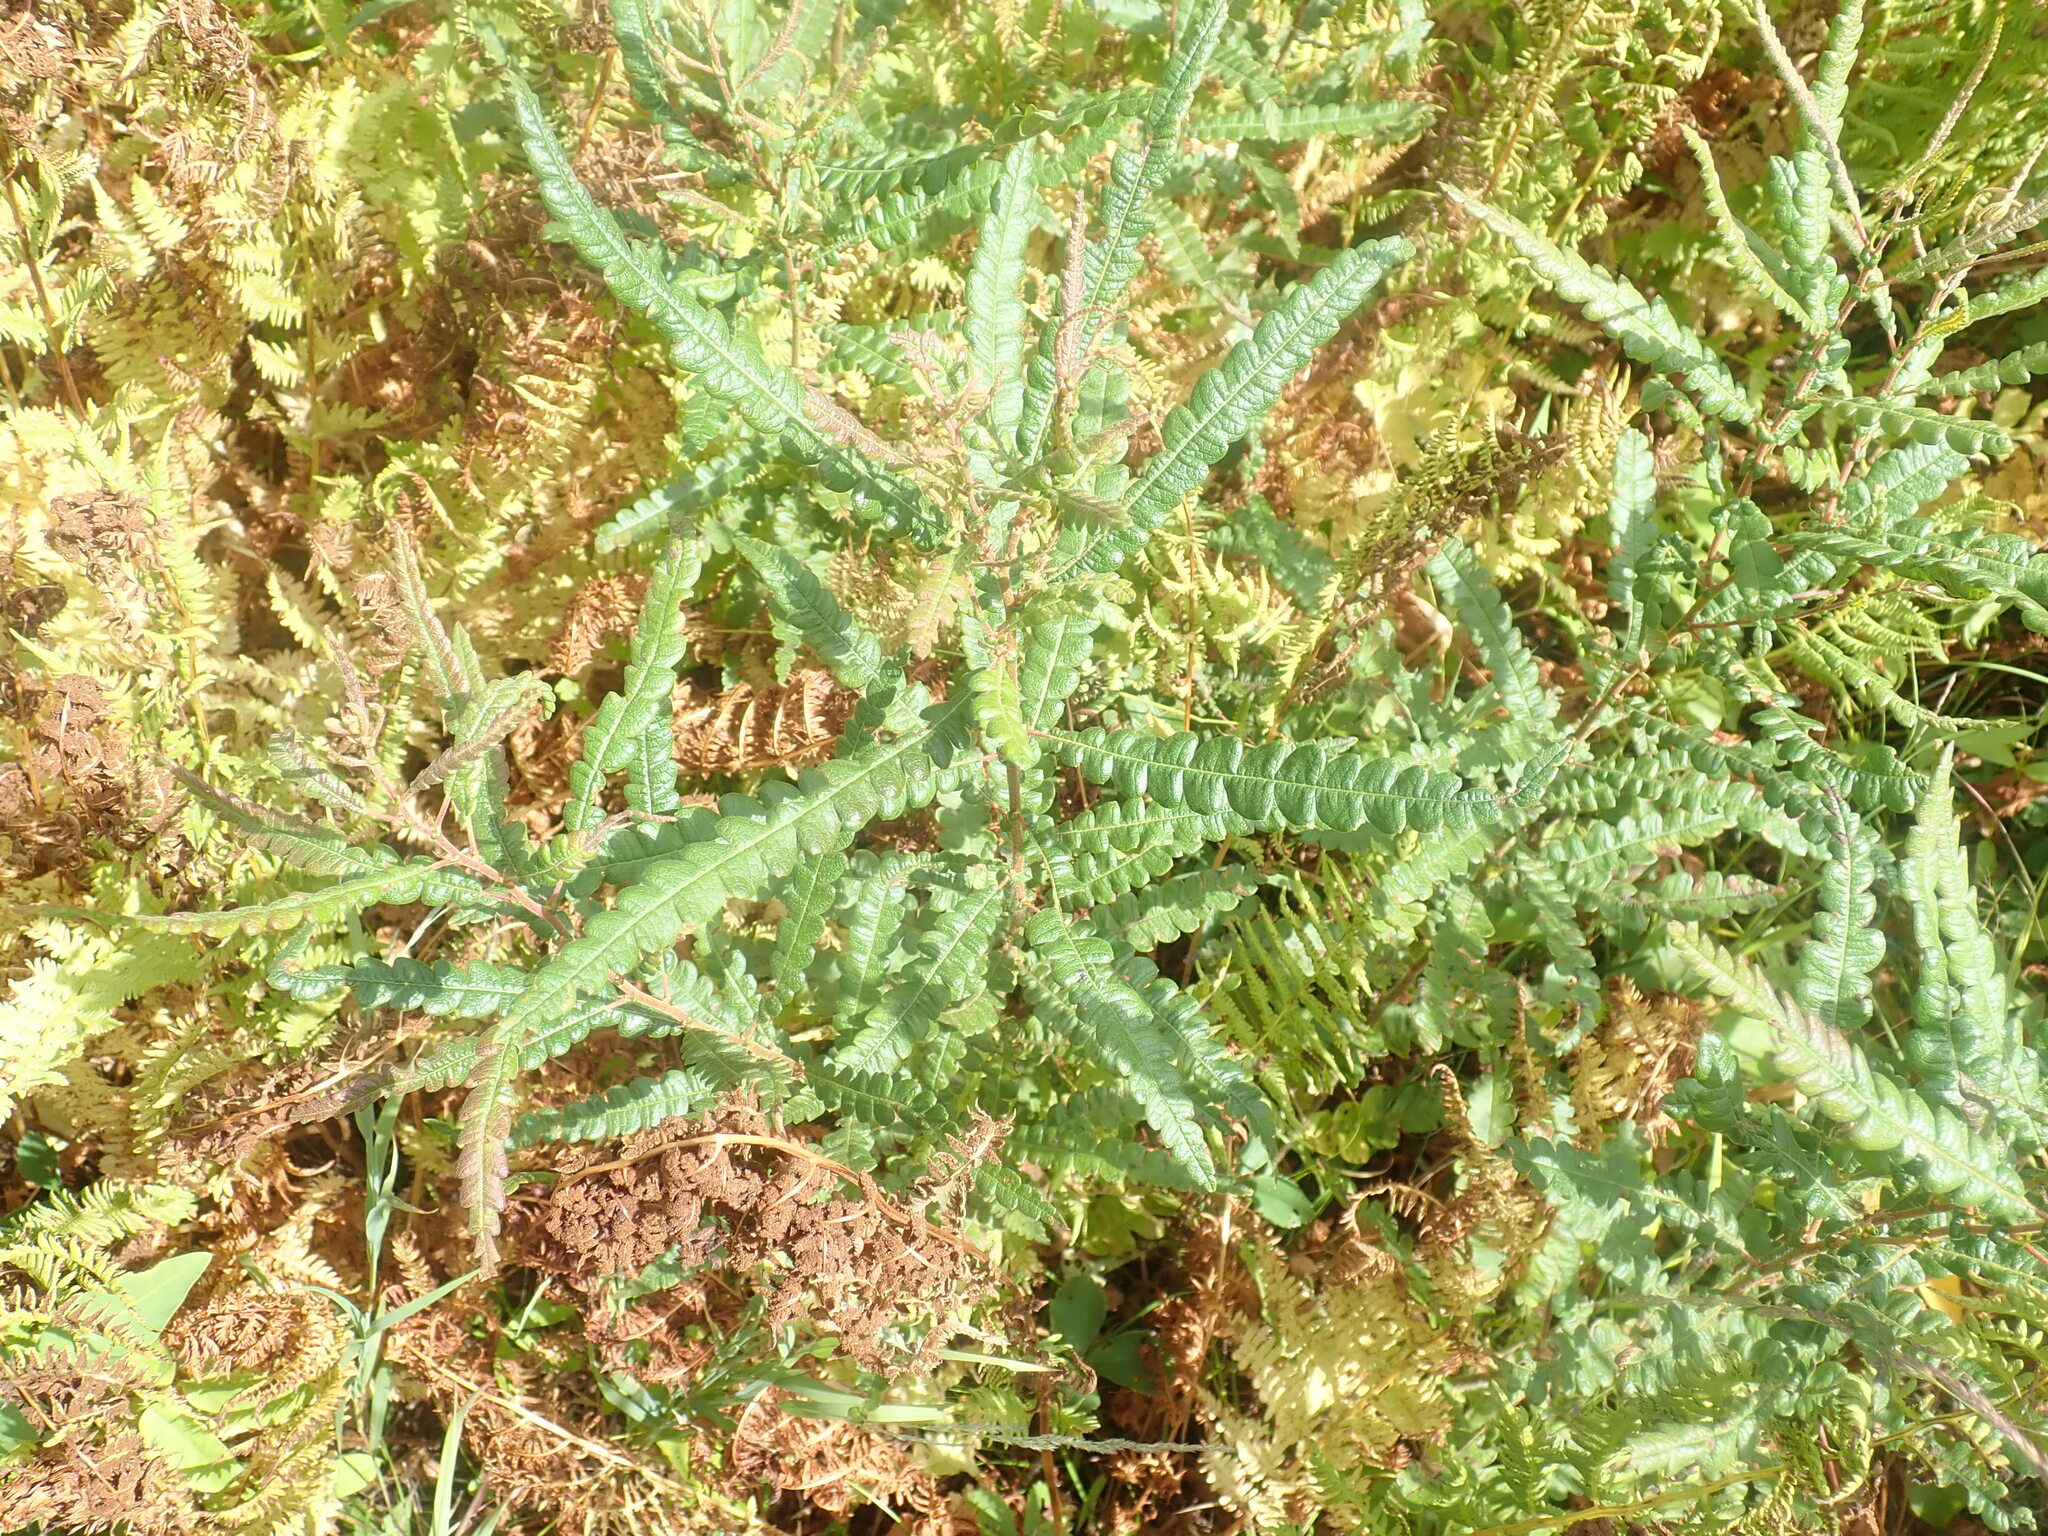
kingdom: Plantae
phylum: Tracheophyta
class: Magnoliopsida
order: Fagales
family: Myricaceae
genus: Comptonia
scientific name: Comptonia peregrina
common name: Sweet-fern
